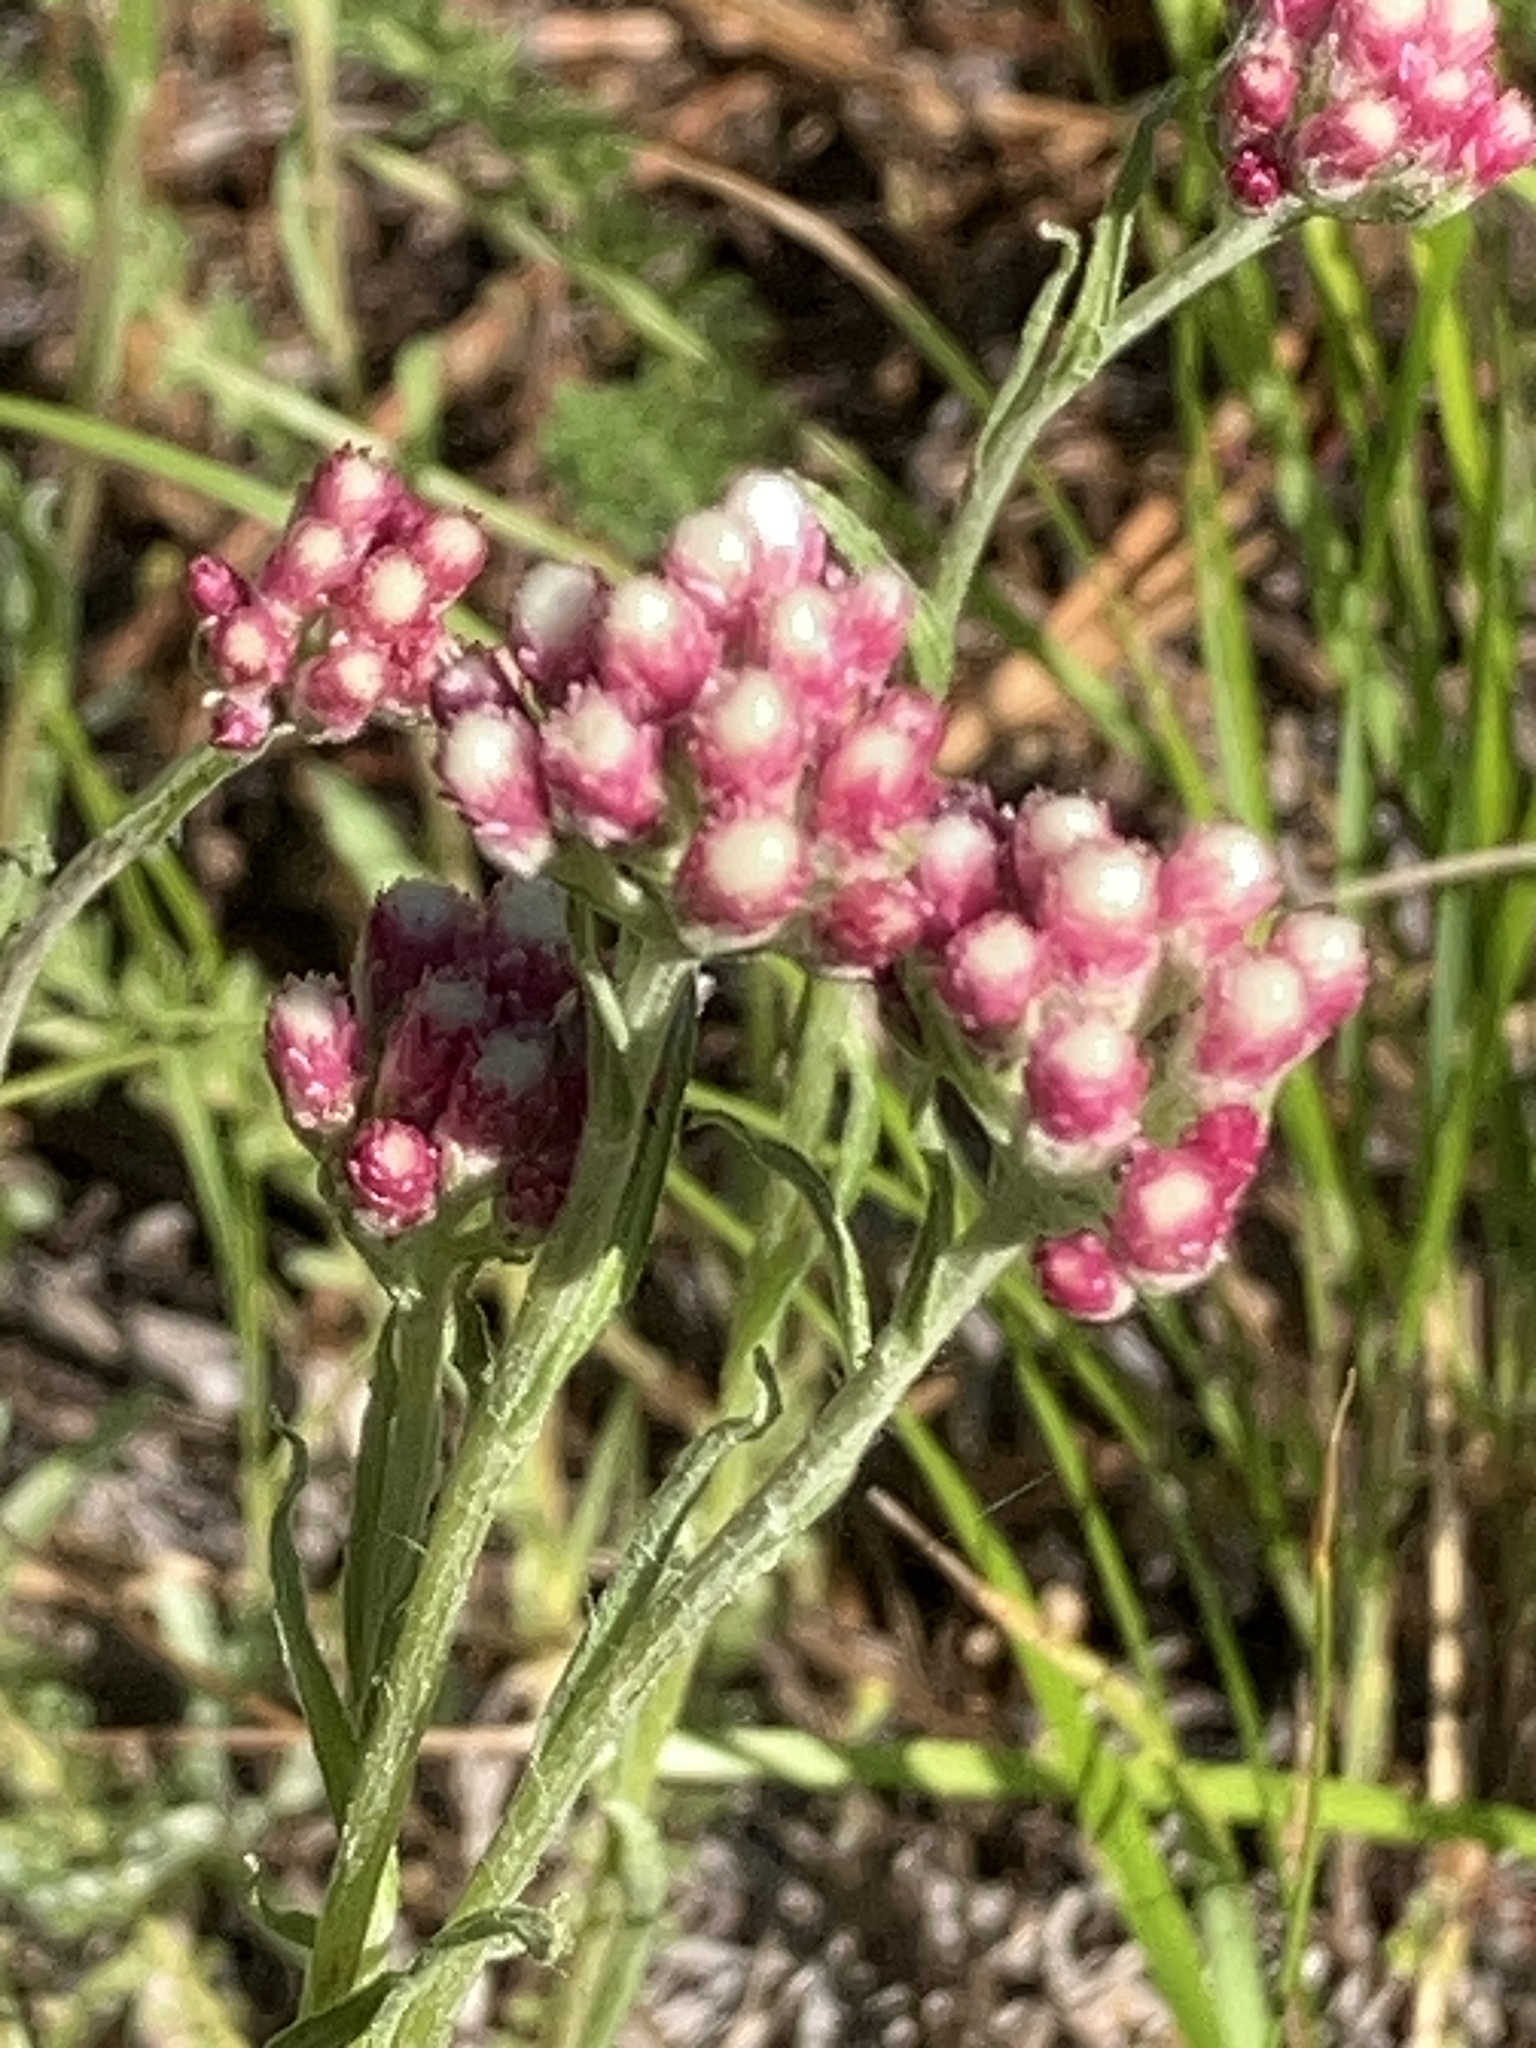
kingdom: Plantae
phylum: Tracheophyta
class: Magnoliopsida
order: Asterales
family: Asteraceae
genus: Antennaria
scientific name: Antennaria rosea
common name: Rosy pussytoes
